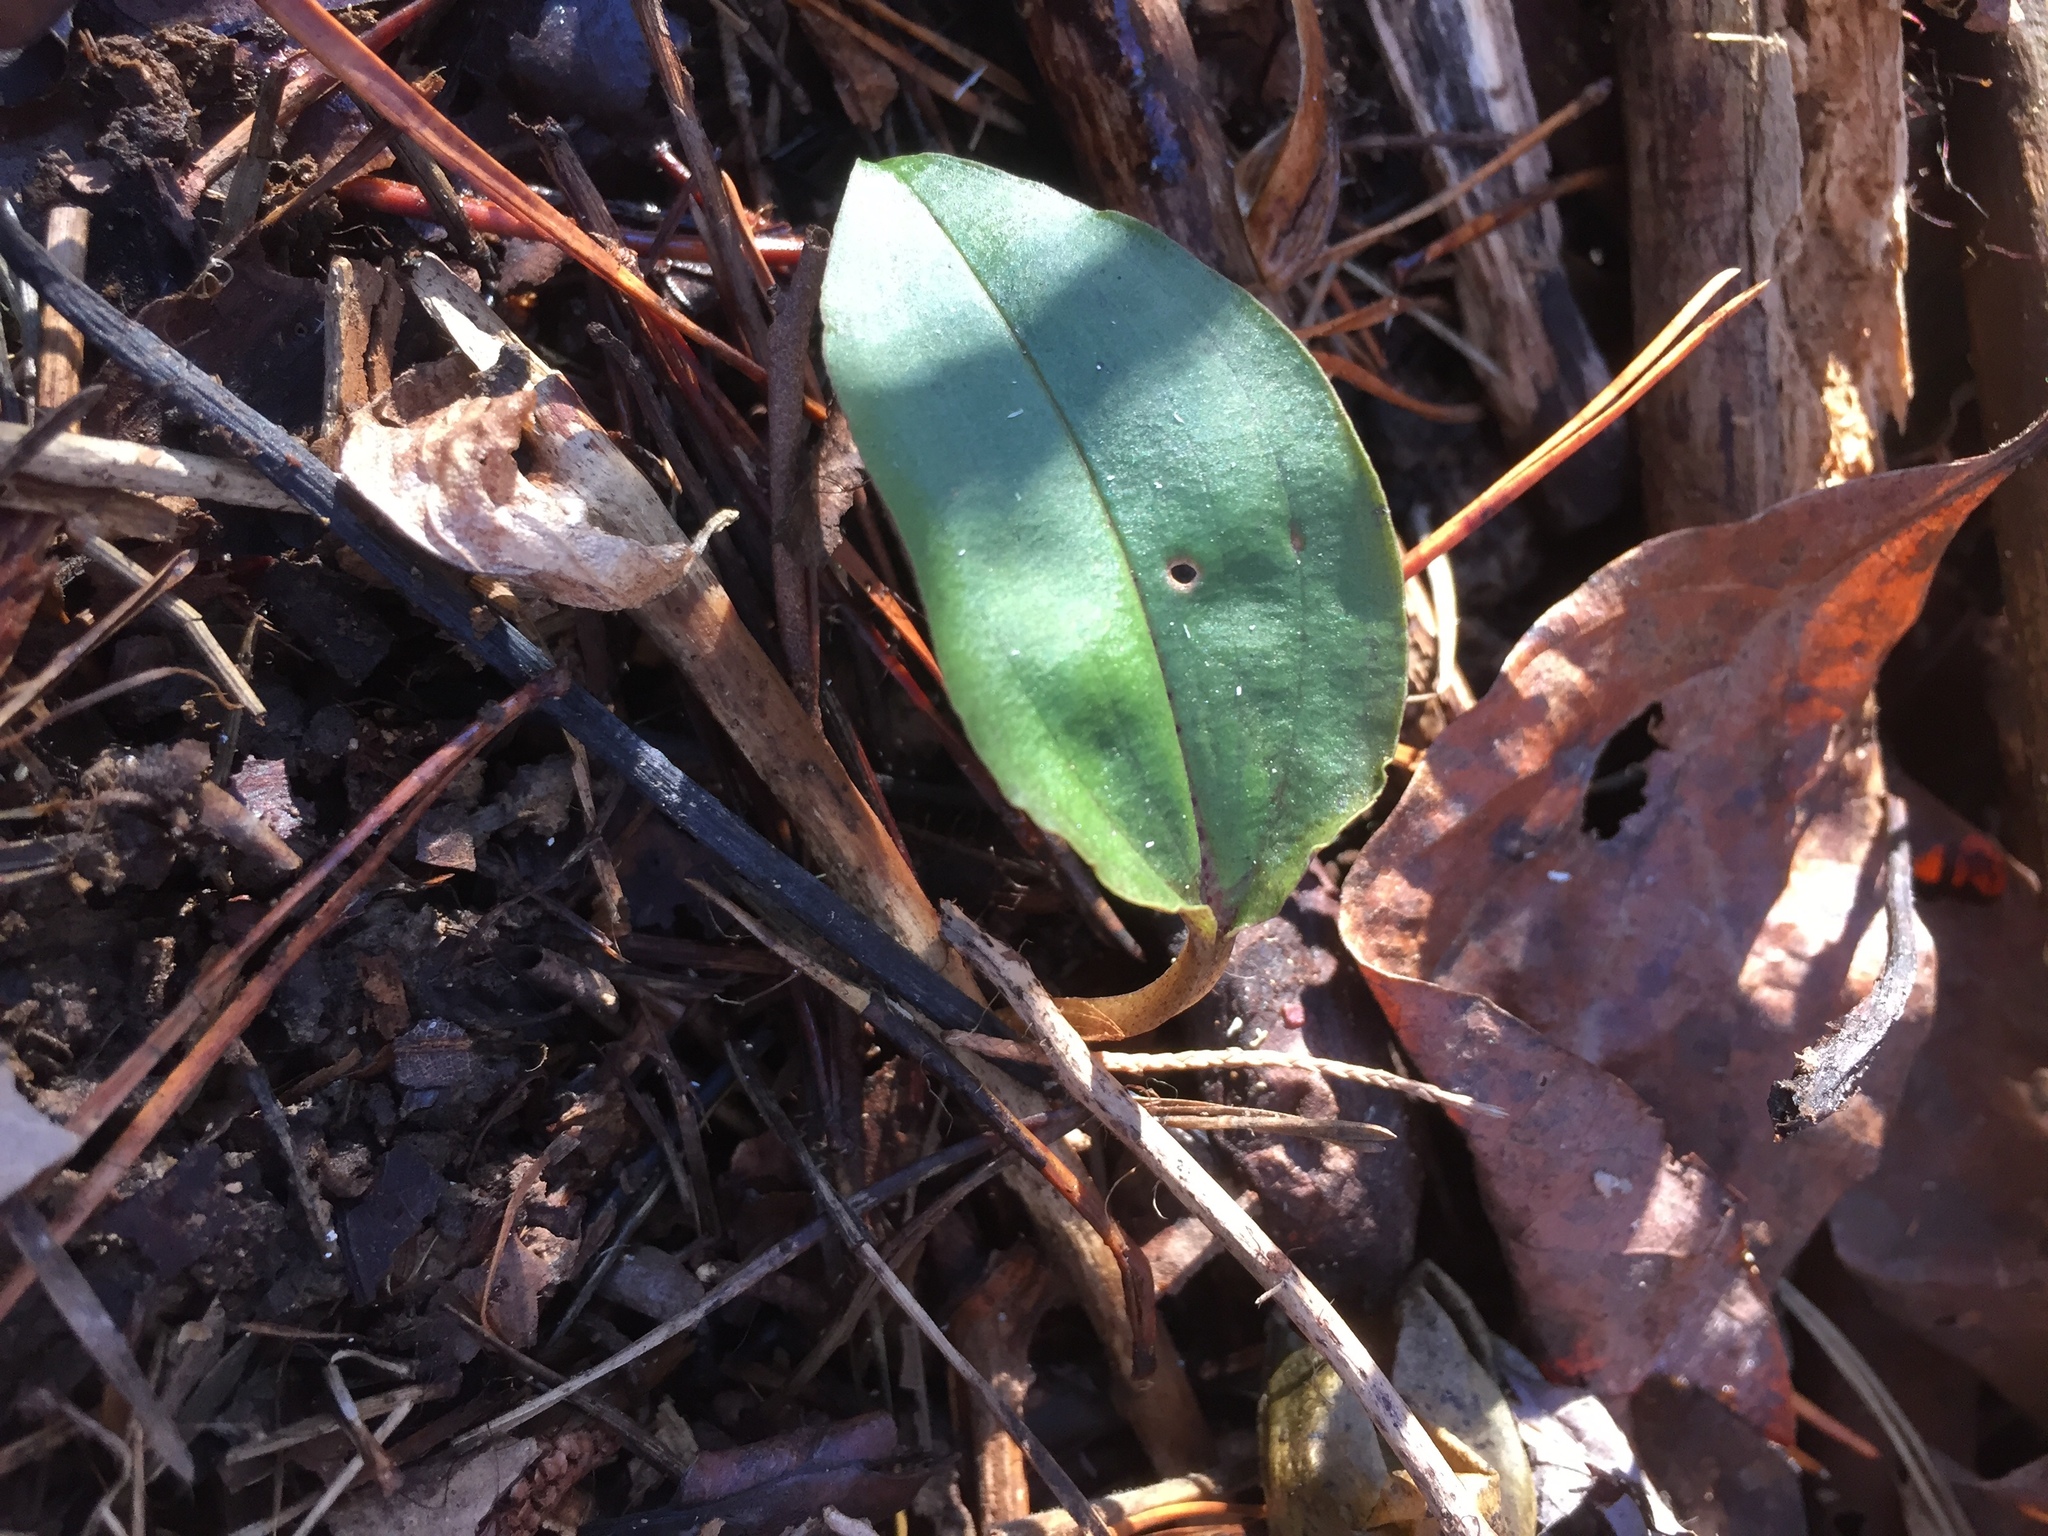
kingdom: Plantae
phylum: Tracheophyta
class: Liliopsida
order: Asparagales
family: Orchidaceae
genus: Tipularia
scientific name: Tipularia discolor
